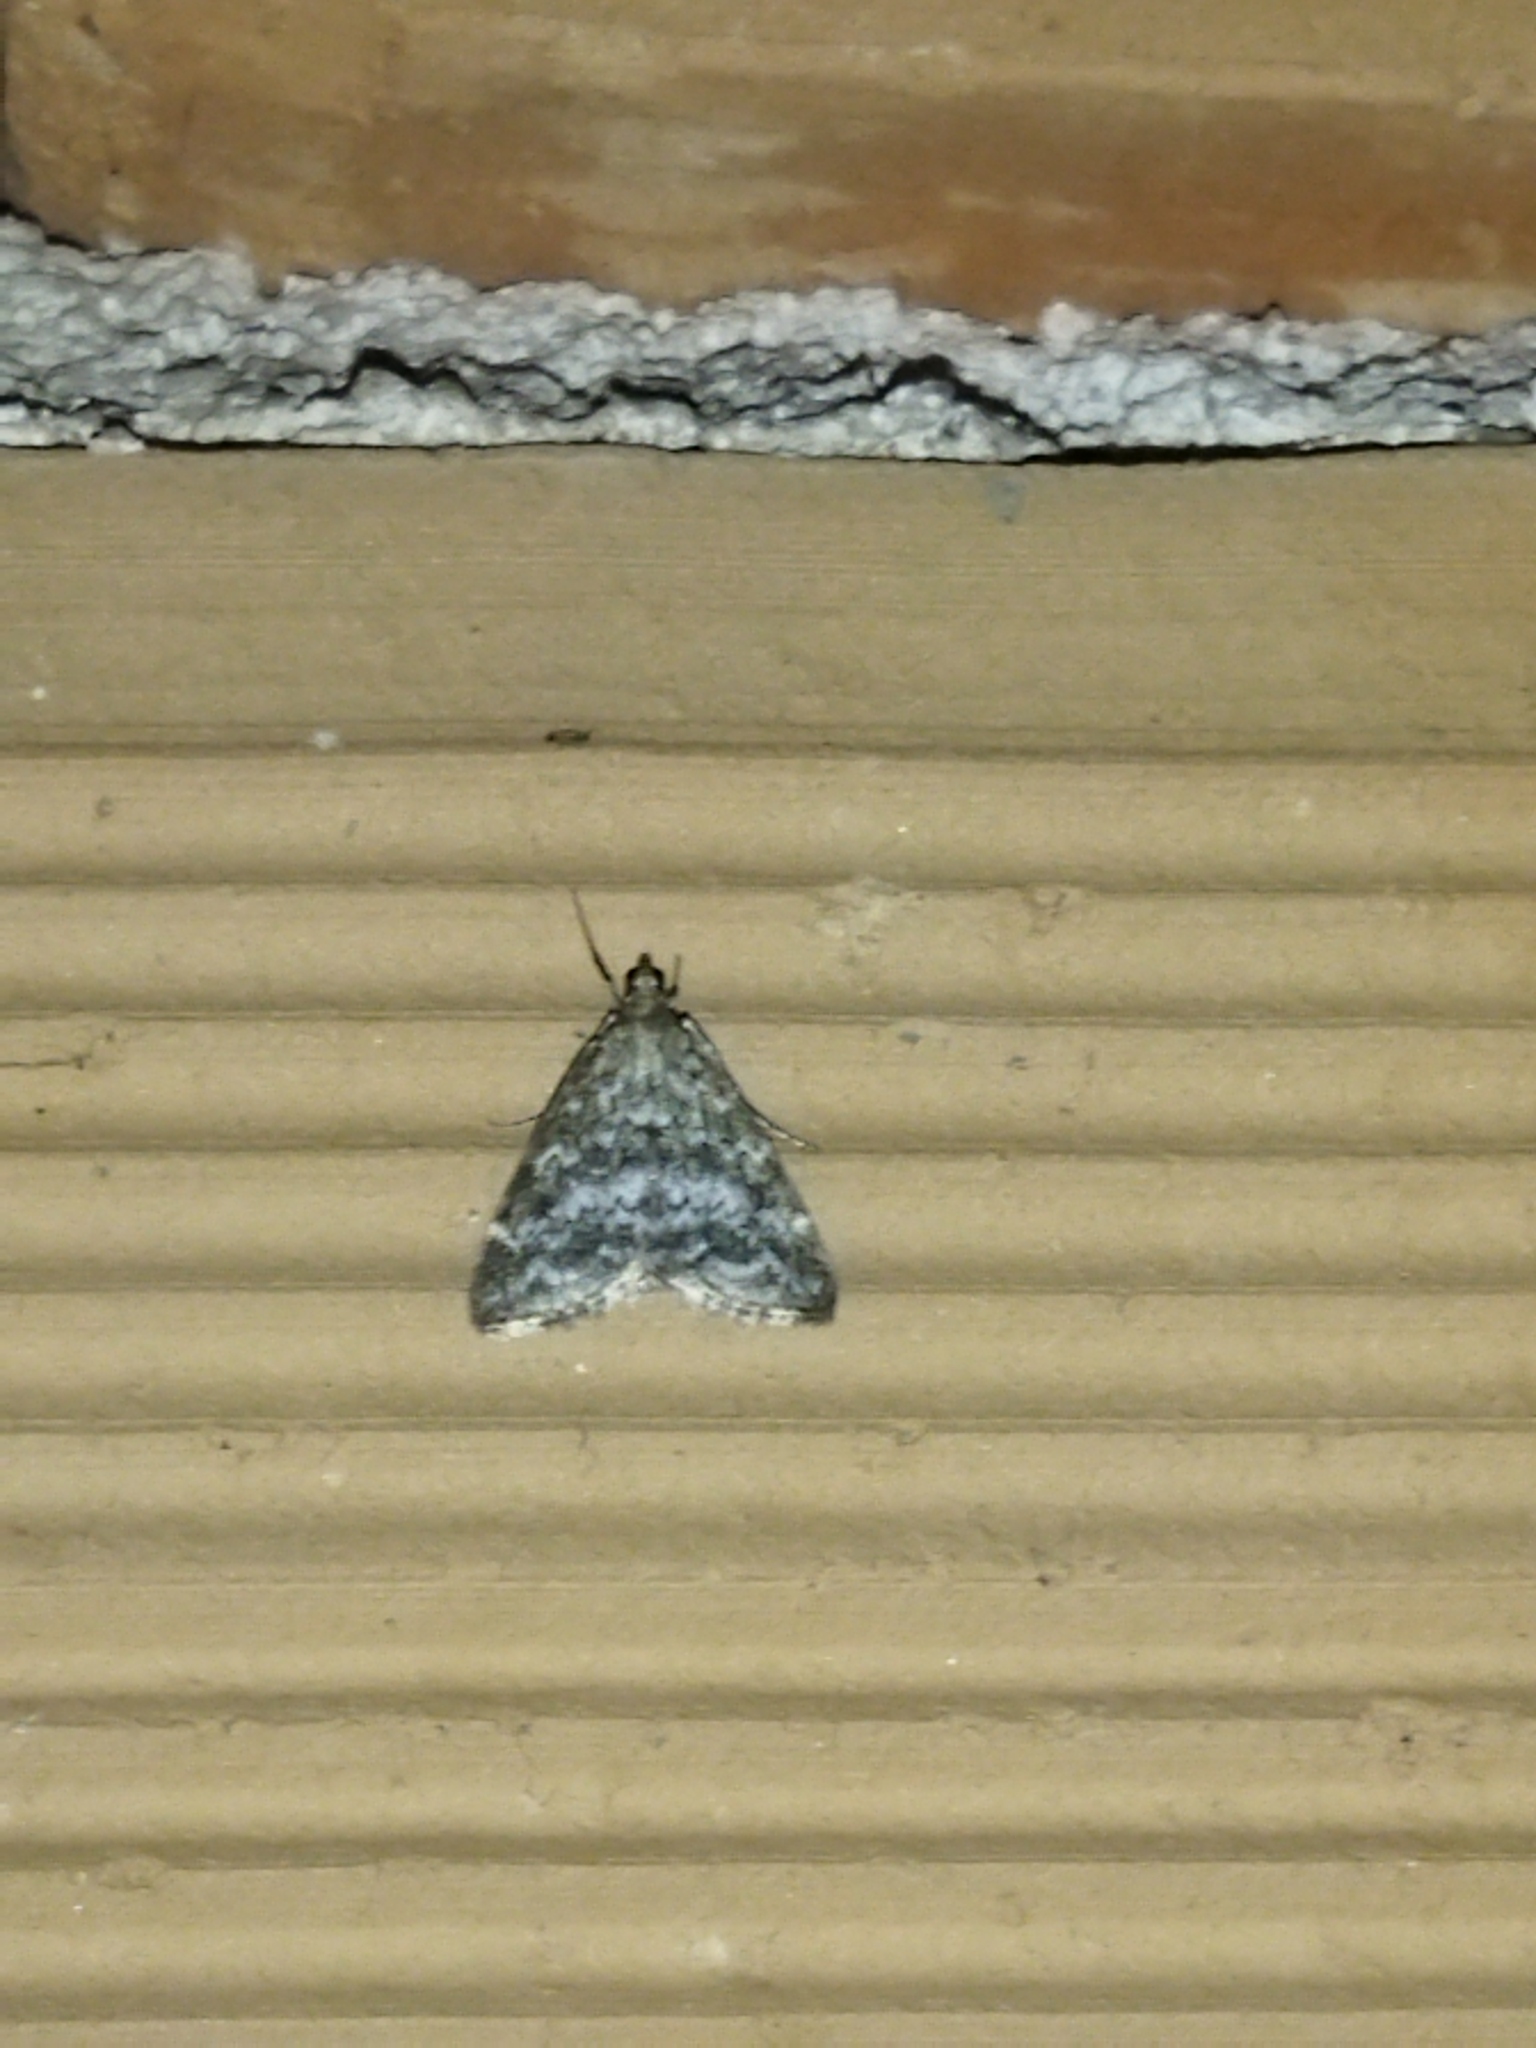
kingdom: Animalia
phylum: Arthropoda
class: Insecta
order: Lepidoptera
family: Crambidae
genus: Evergestis
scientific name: Evergestis sophialis
